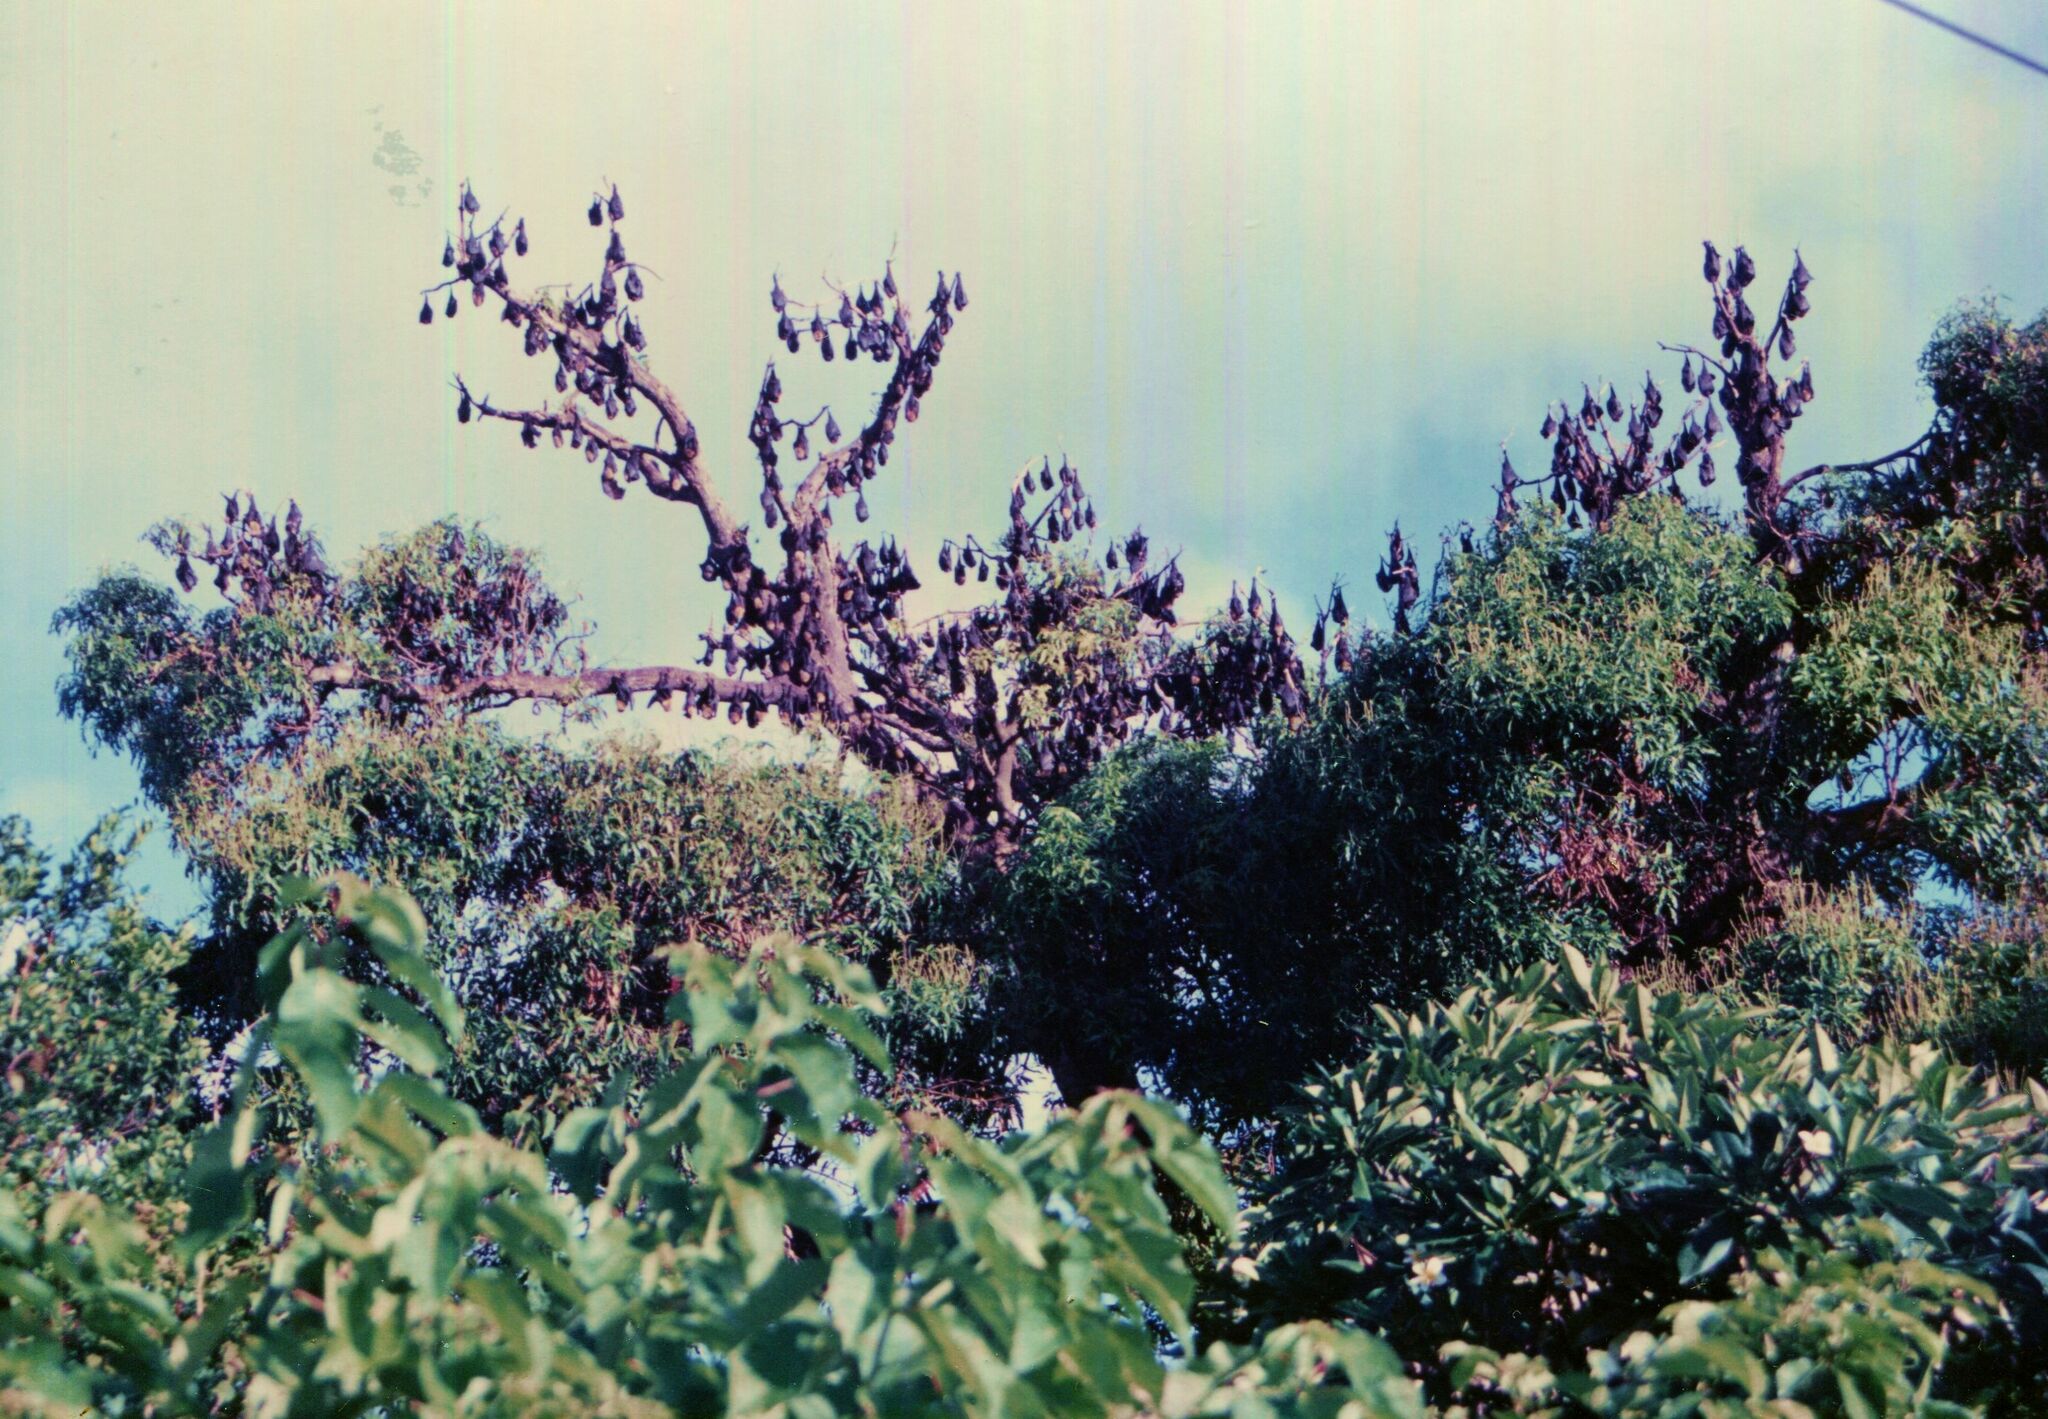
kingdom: Animalia
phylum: Chordata
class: Mammalia
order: Chiroptera
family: Pteropodidae
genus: Pteropus
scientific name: Pteropus tonganus
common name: Pacific flying fox
